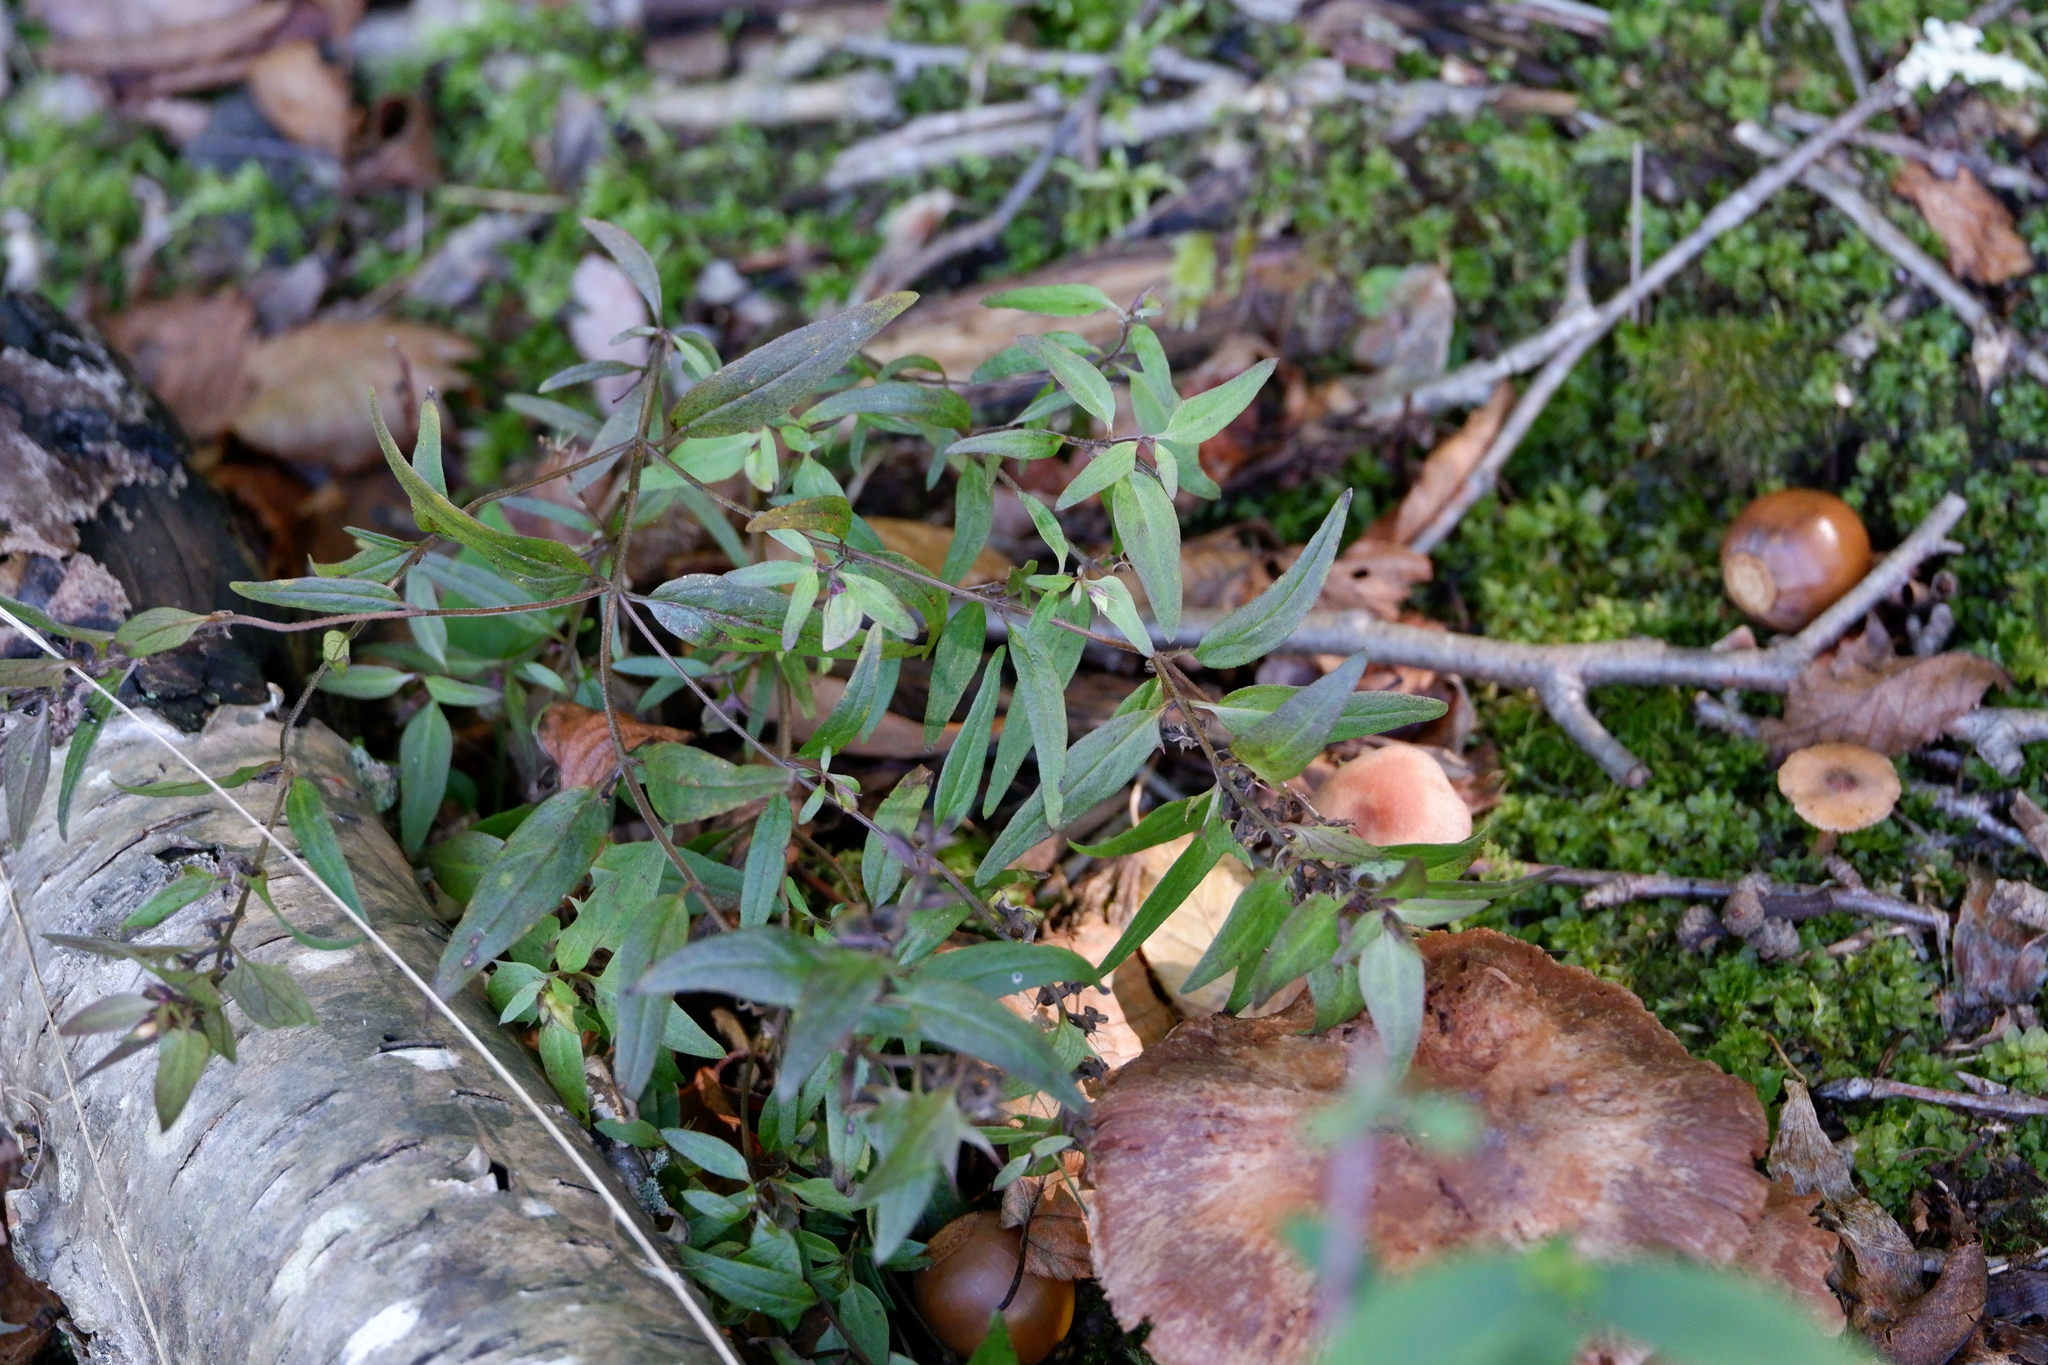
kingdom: Plantae
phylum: Tracheophyta
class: Magnoliopsida
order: Lamiales
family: Orobanchaceae
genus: Melampyrum
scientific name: Melampyrum lineare
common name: American cow-wheat
